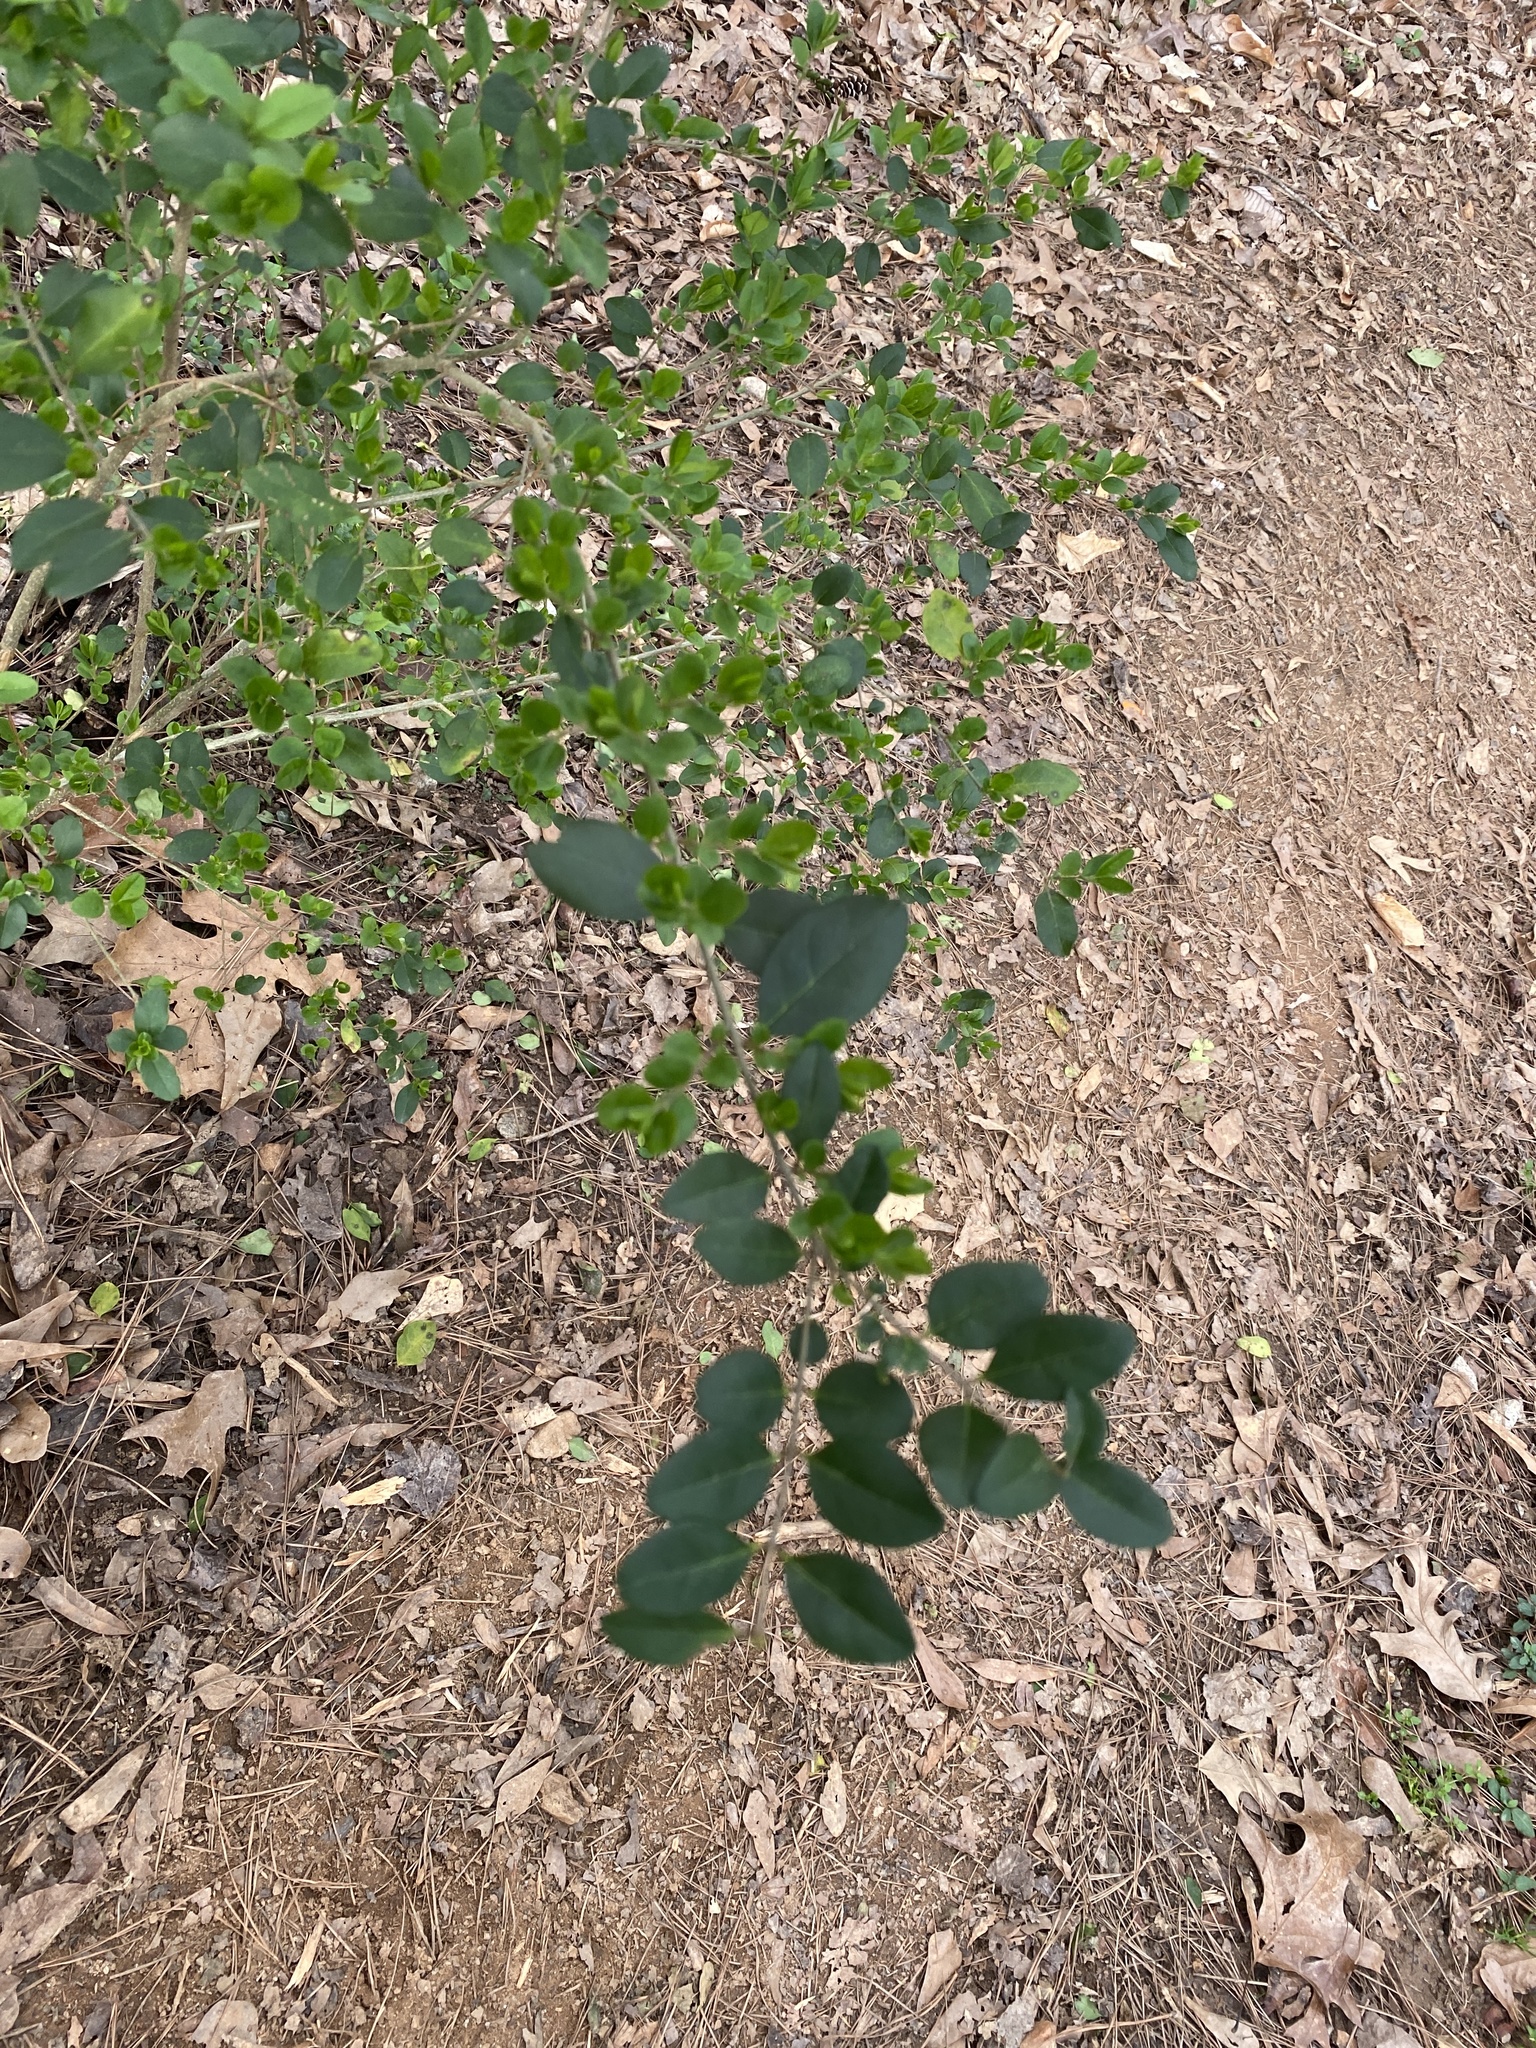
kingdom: Plantae
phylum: Tracheophyta
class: Magnoliopsida
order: Lamiales
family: Oleaceae
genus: Ligustrum
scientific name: Ligustrum sinense
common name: Chinese privet
